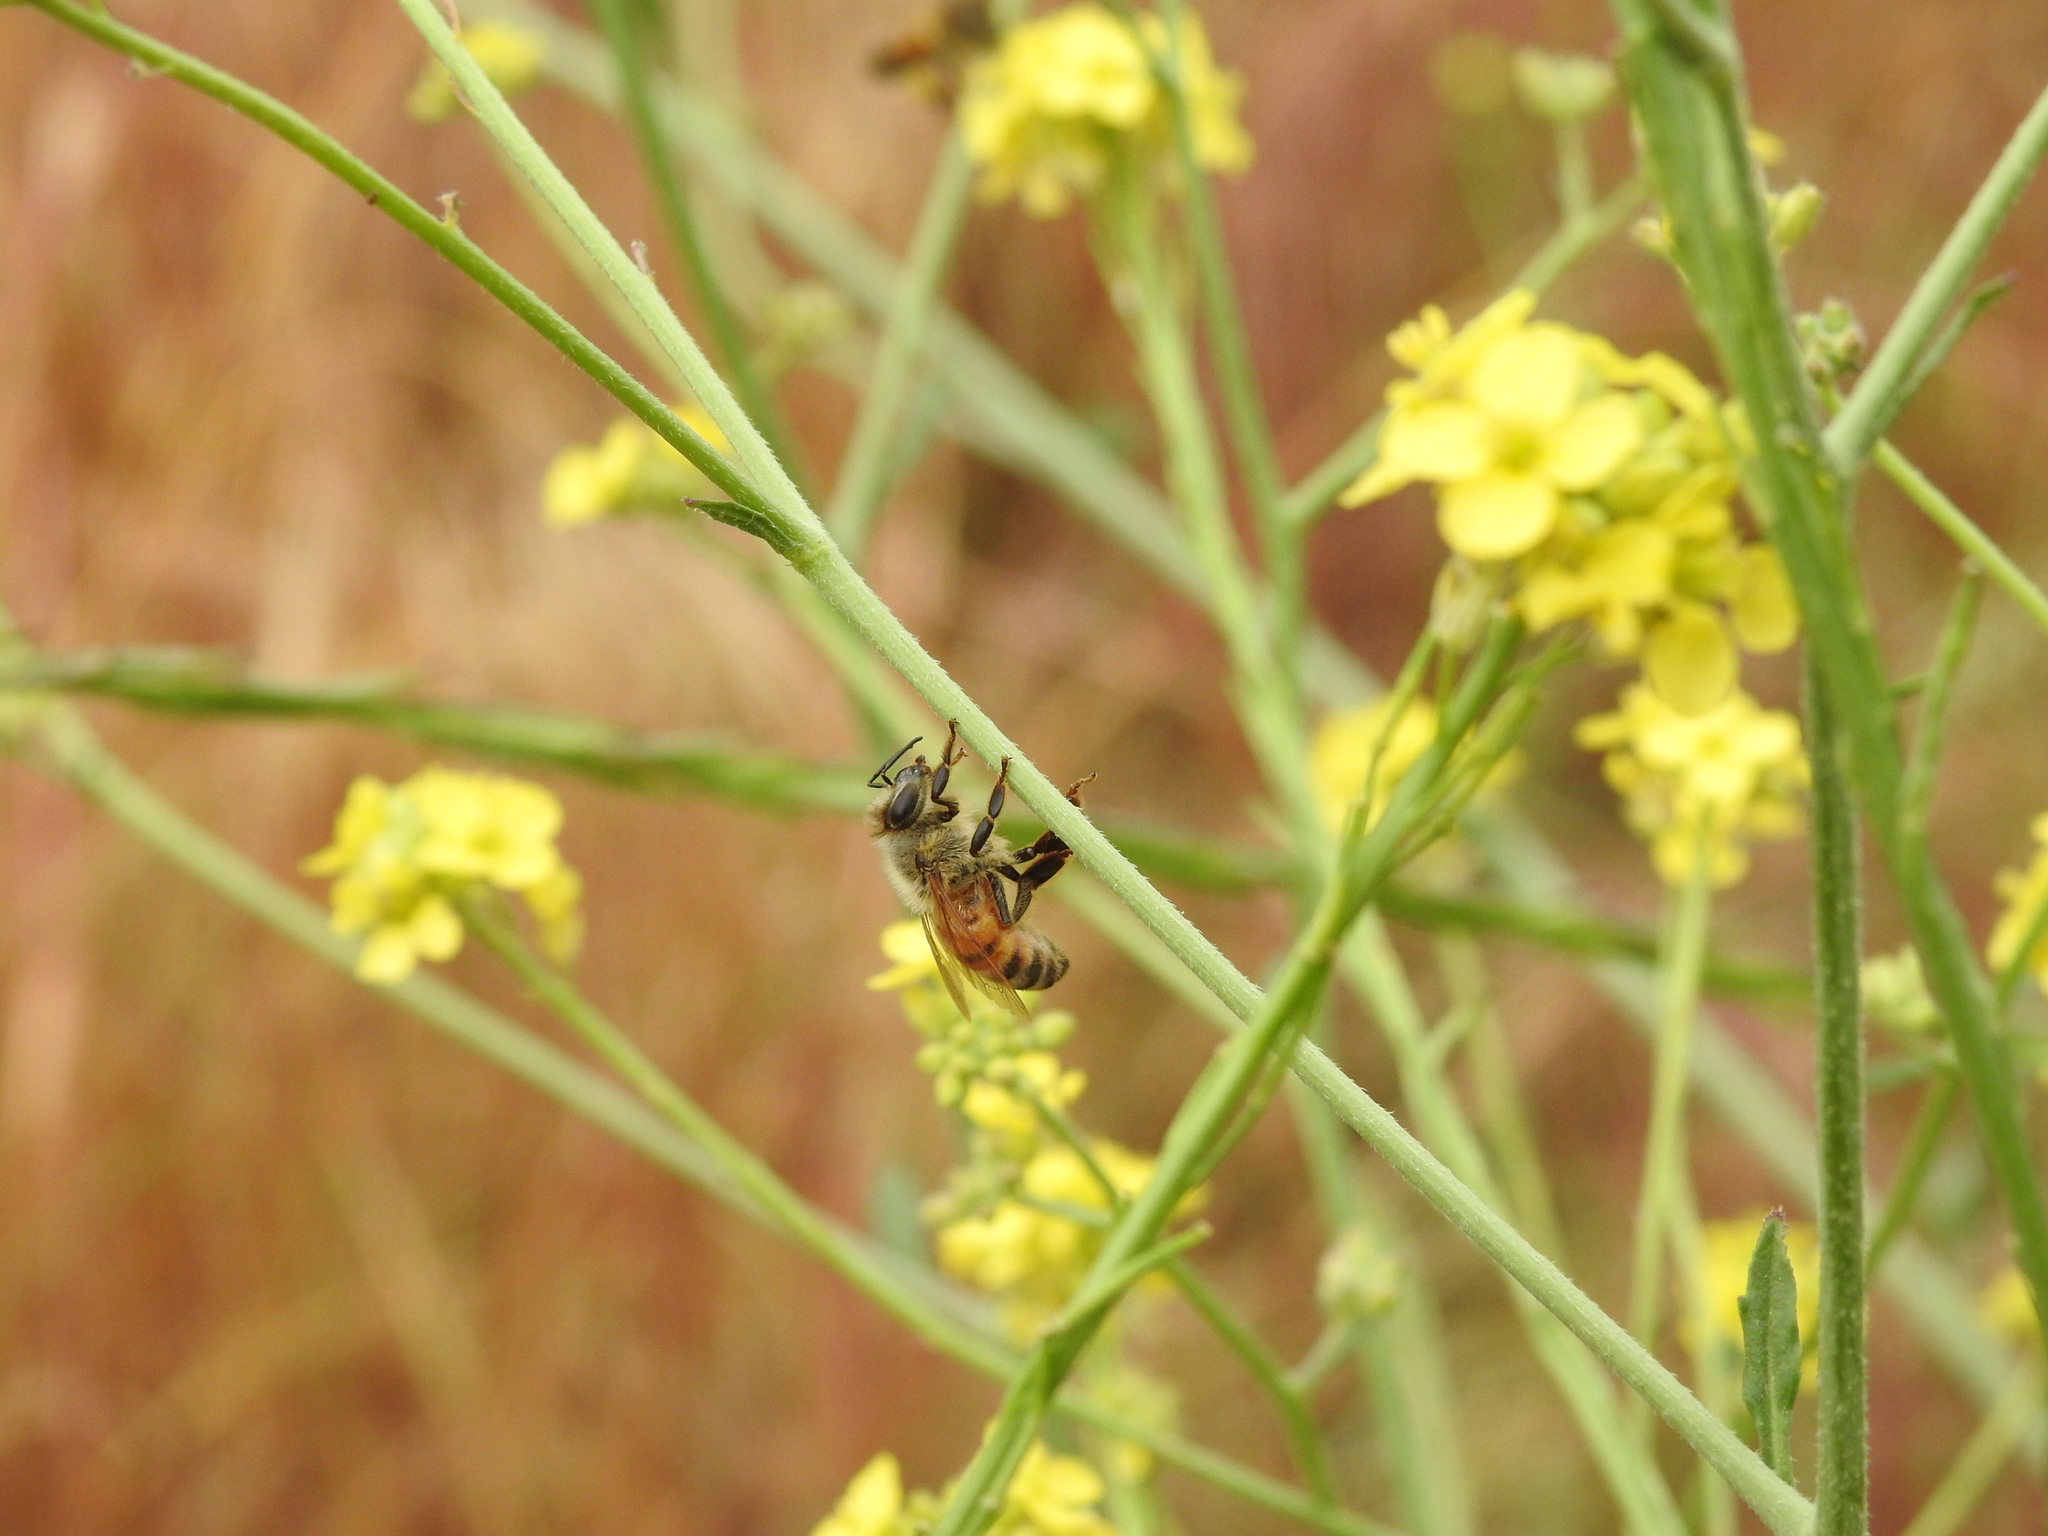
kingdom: Animalia
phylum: Arthropoda
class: Insecta
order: Hymenoptera
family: Apidae
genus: Apis
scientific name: Apis mellifera
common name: Honey bee
